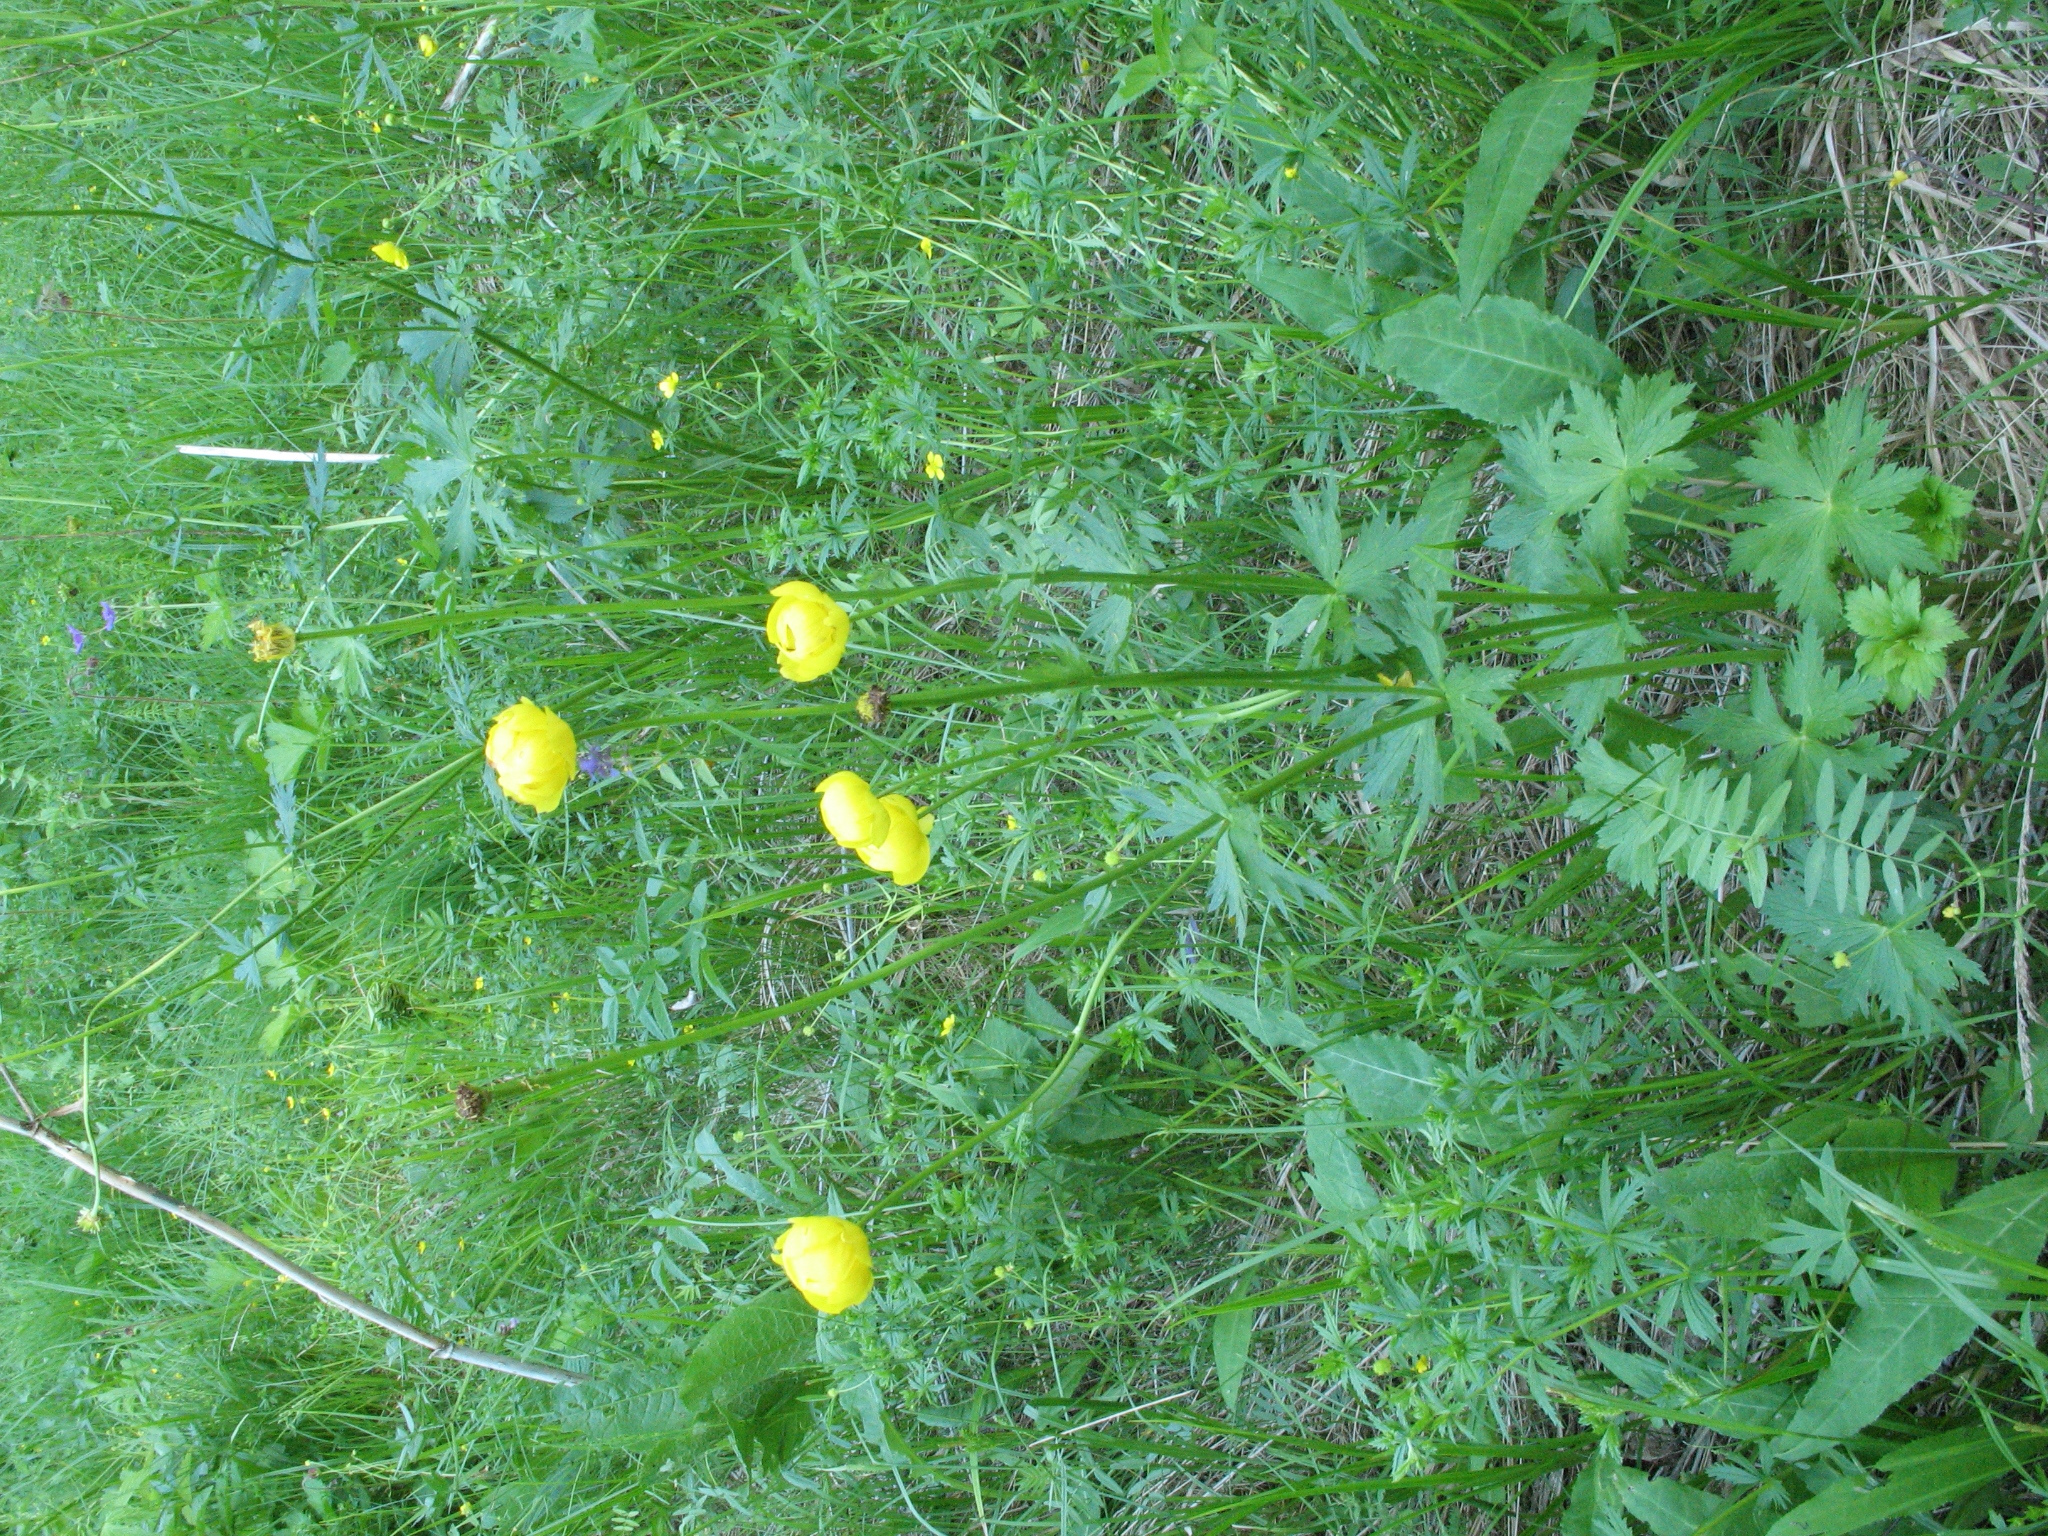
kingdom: Plantae
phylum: Tracheophyta
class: Magnoliopsida
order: Ranunculales
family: Ranunculaceae
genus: Trollius
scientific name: Trollius europaeus
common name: European globeflower
